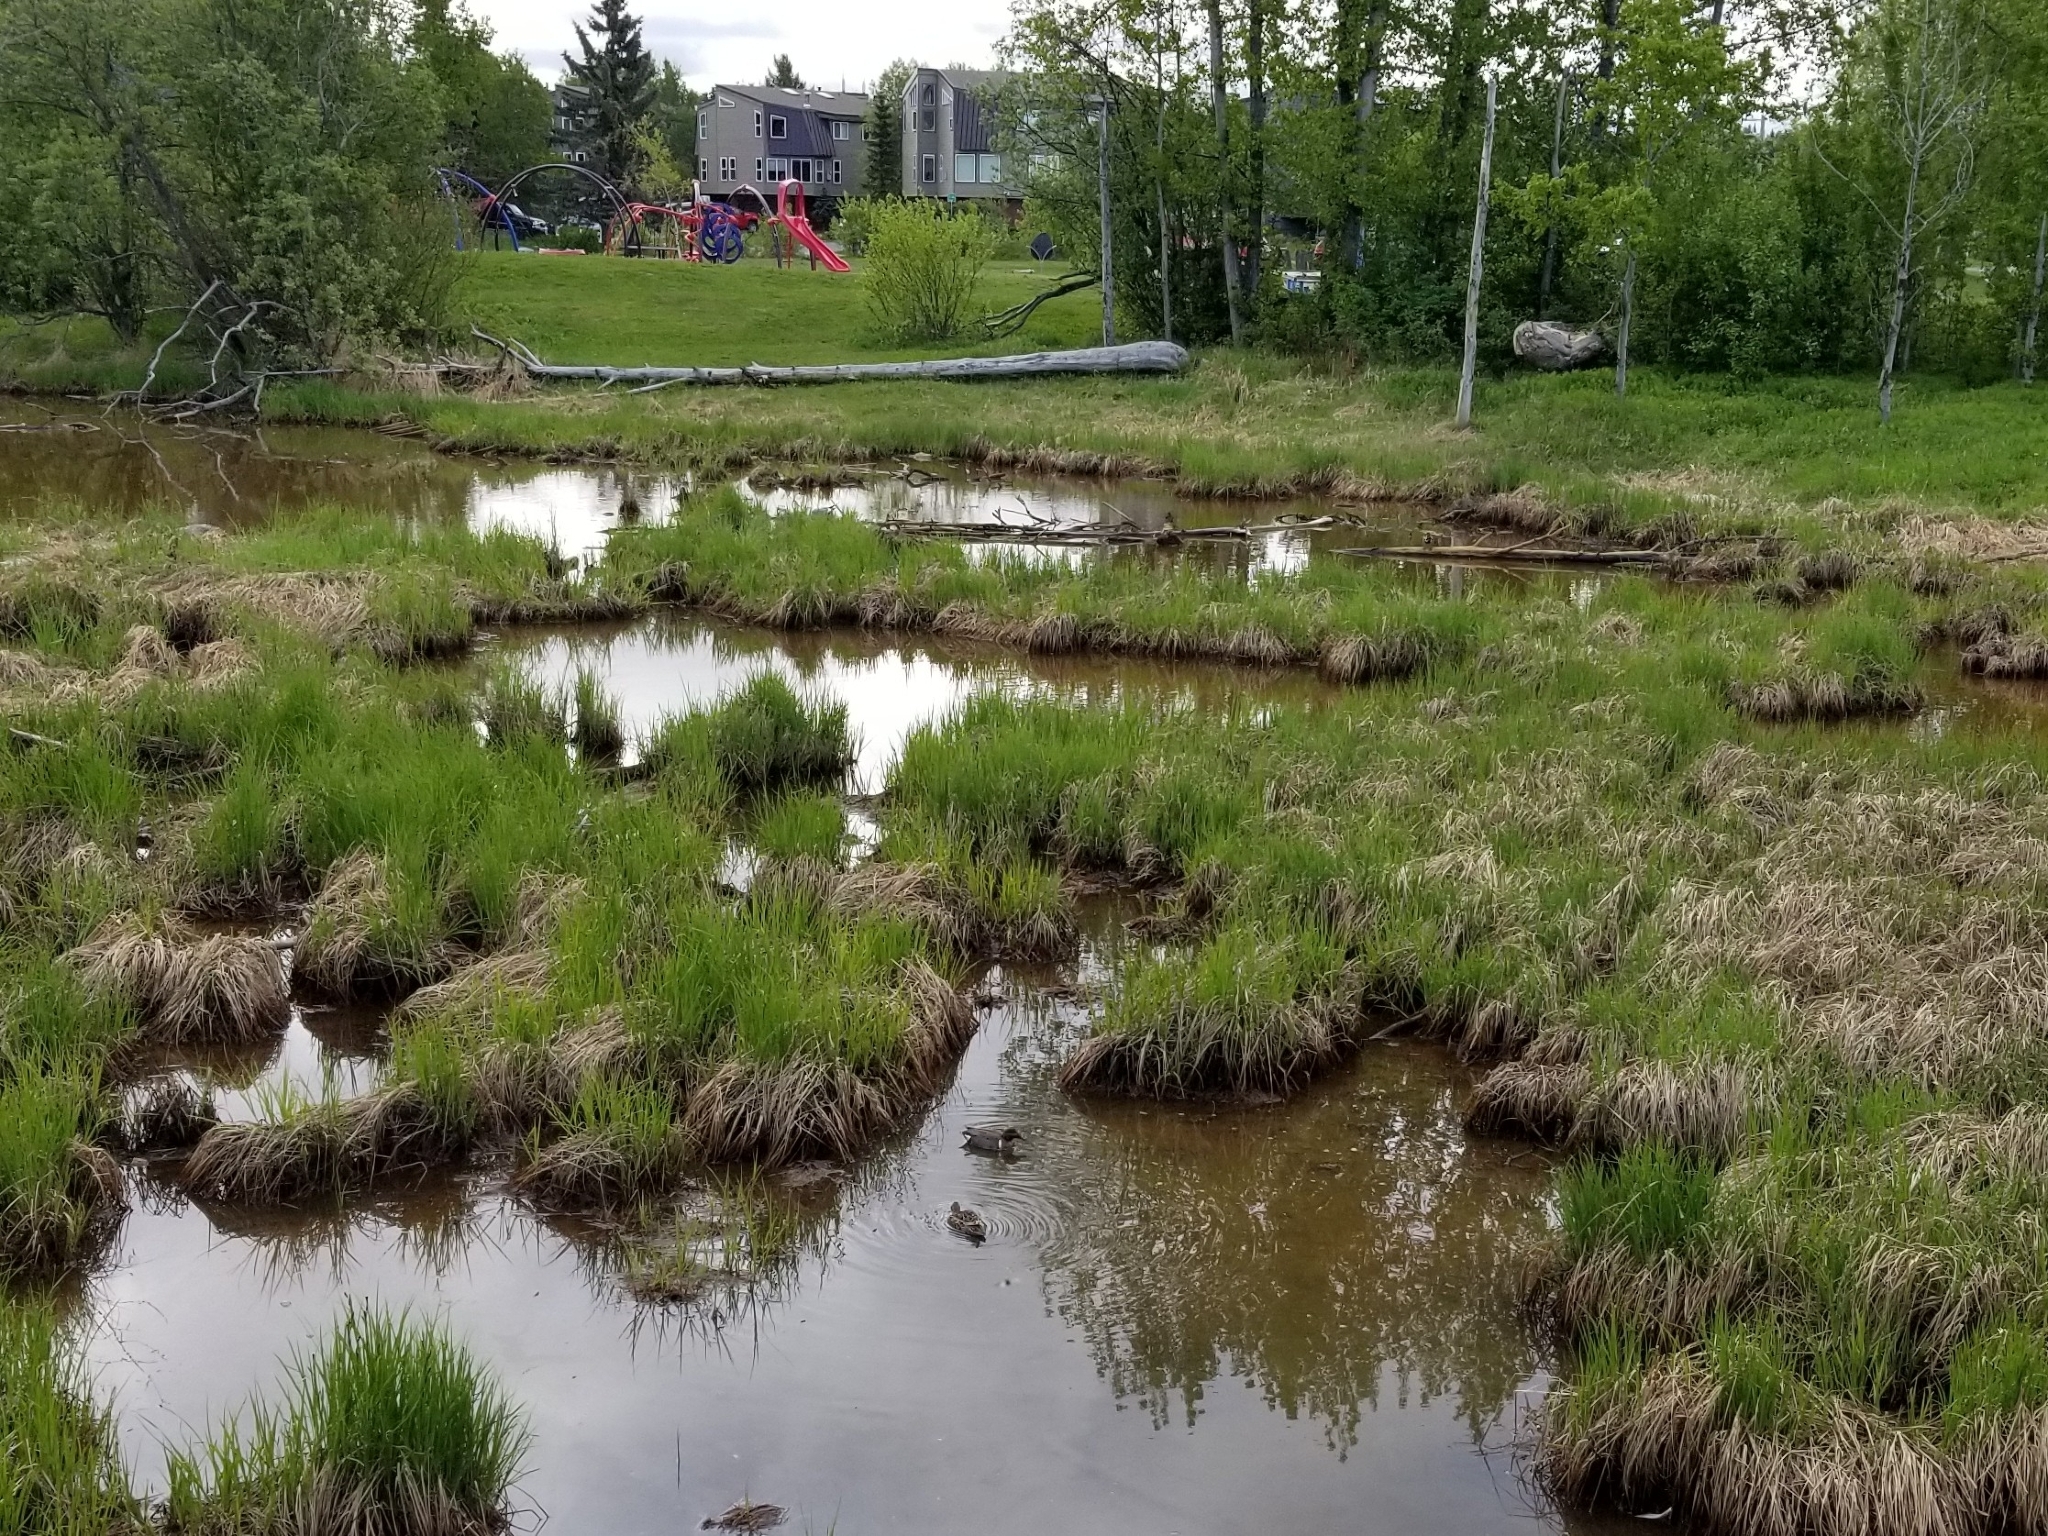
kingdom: Animalia
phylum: Chordata
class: Aves
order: Anseriformes
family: Anatidae
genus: Anas
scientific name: Anas crecca
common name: Eurasian teal
